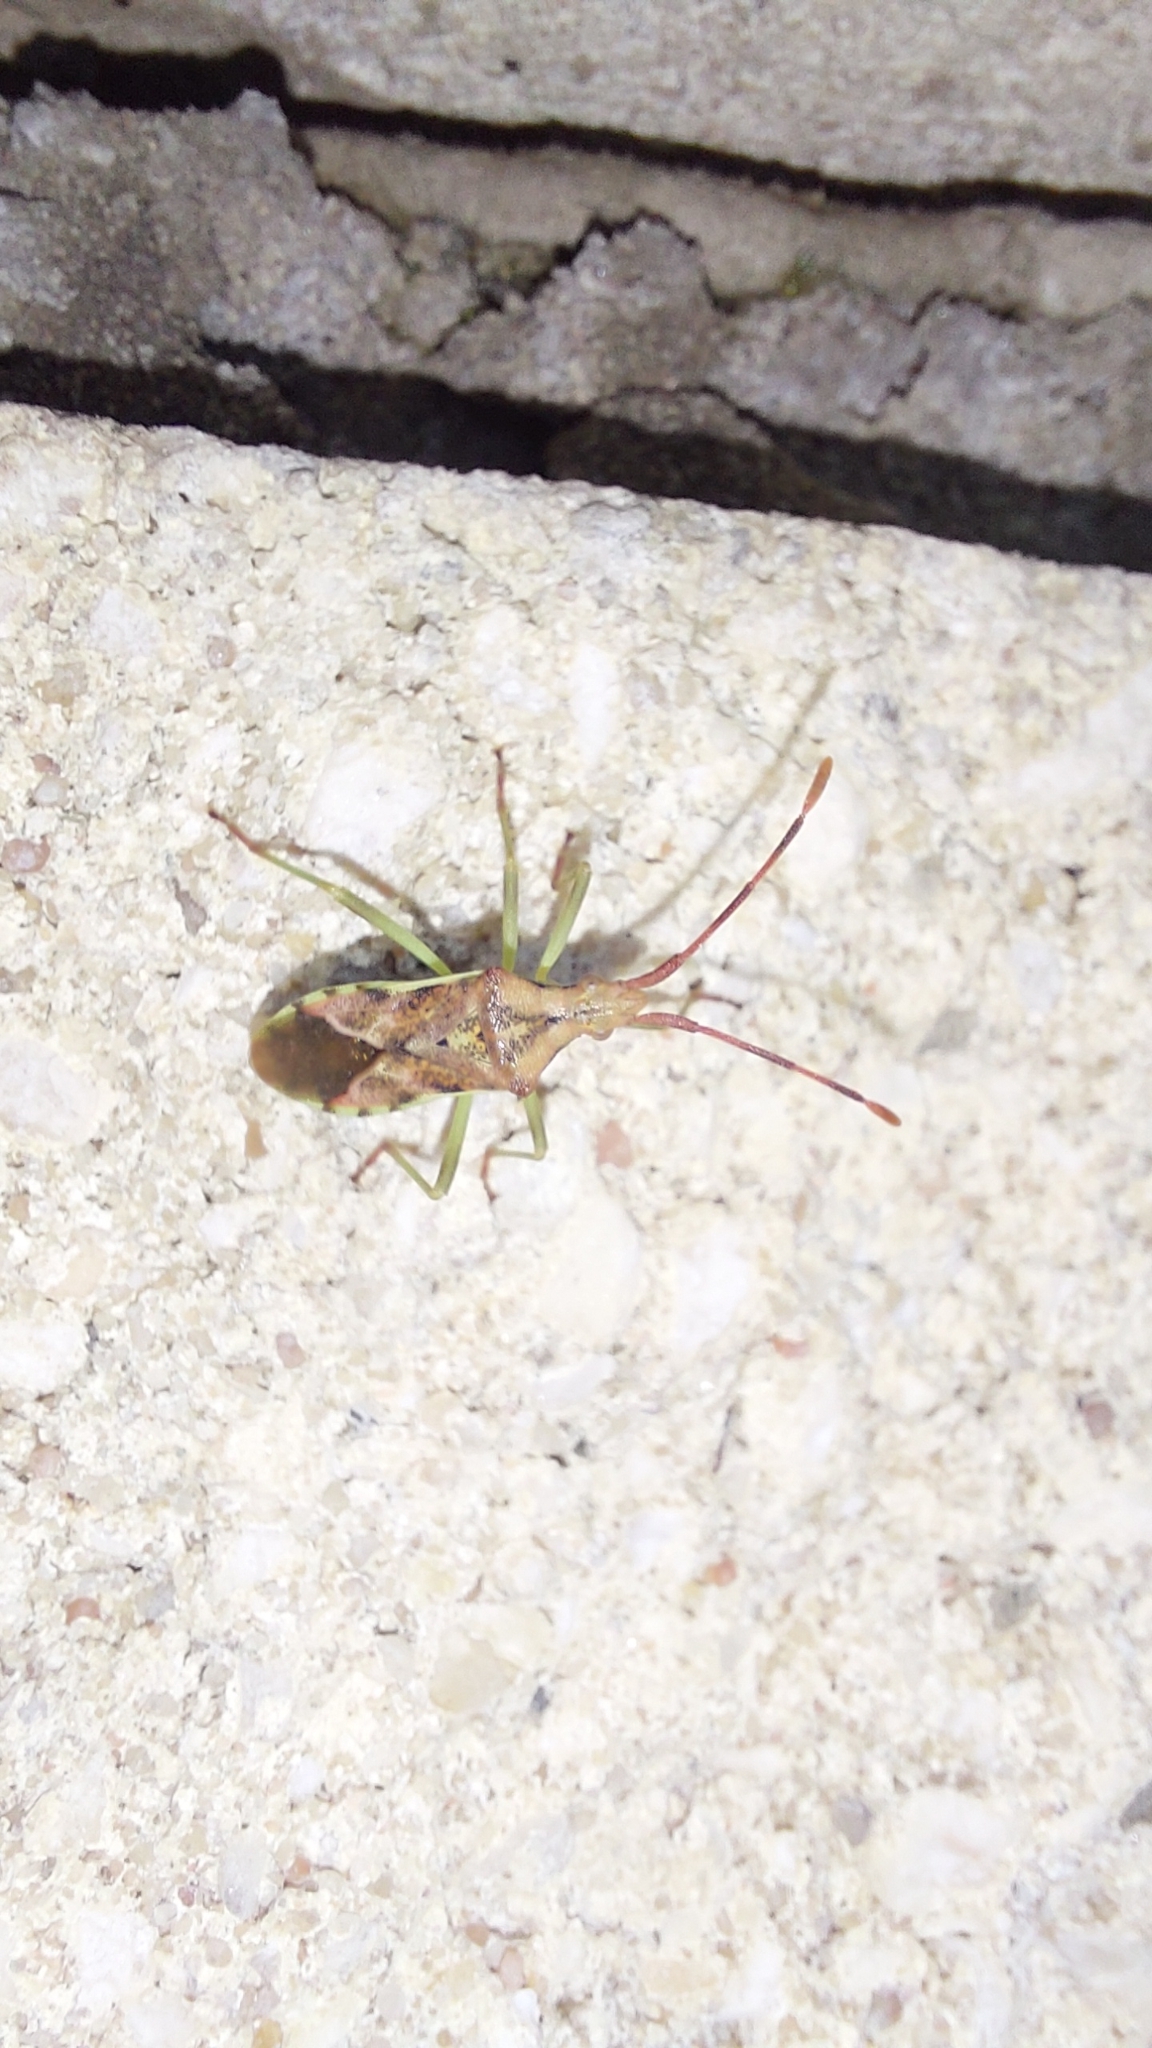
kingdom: Animalia
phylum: Arthropoda
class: Insecta
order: Hemiptera
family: Coreidae
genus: Gonocerus
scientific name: Gonocerus juniperi
